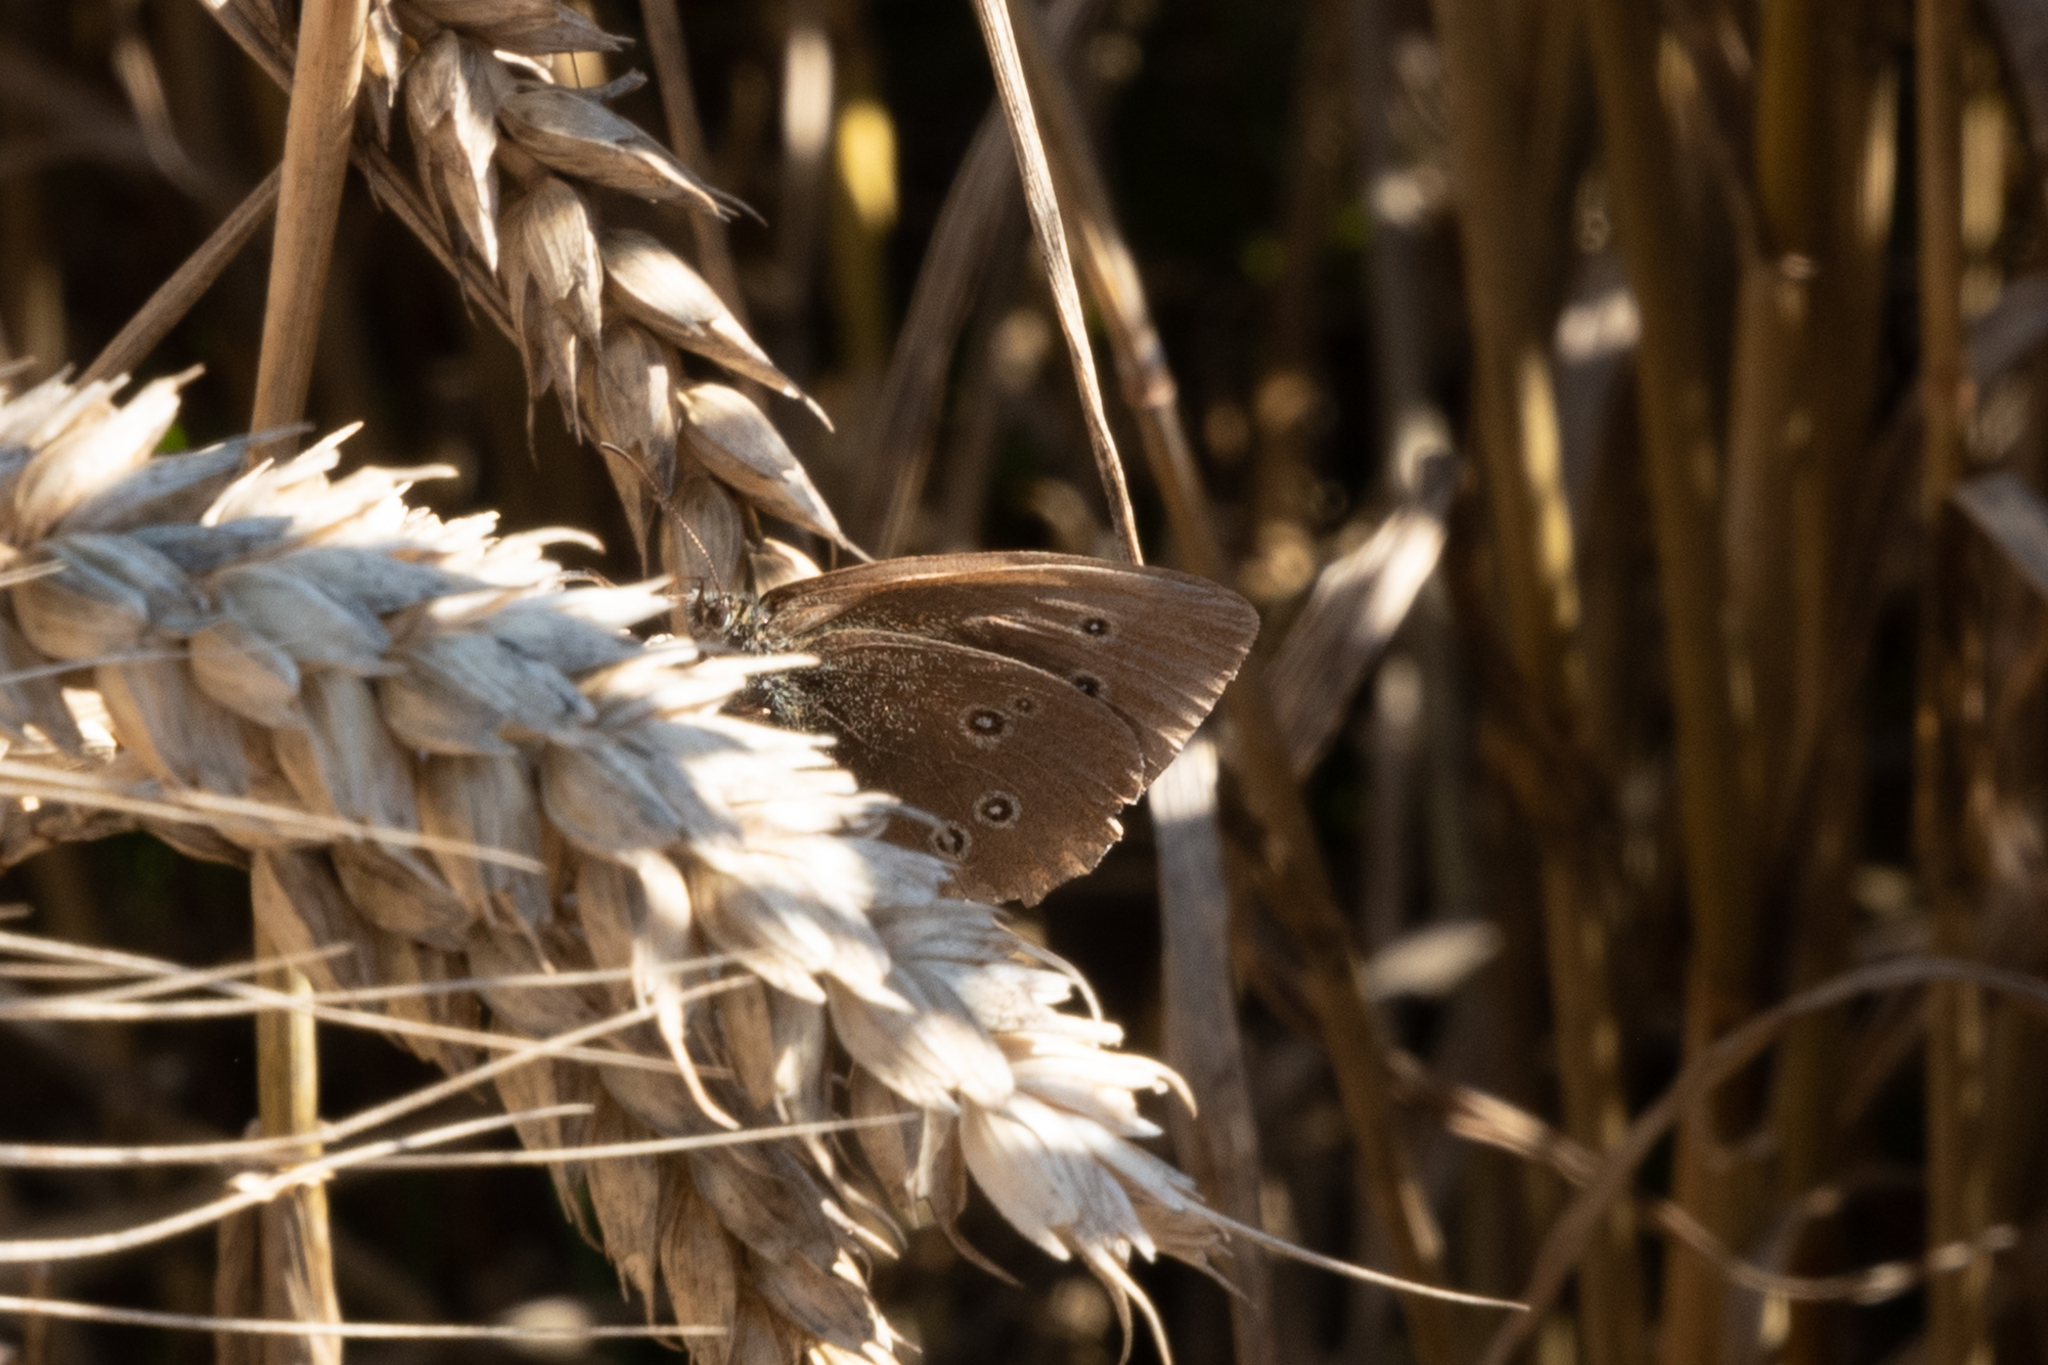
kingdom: Animalia
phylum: Arthropoda
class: Insecta
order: Lepidoptera
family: Nymphalidae
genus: Aphantopus
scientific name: Aphantopus hyperantus
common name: Ringlet
